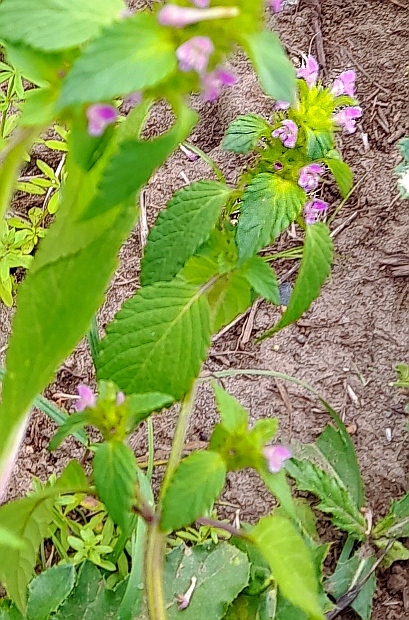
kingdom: Plantae
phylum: Tracheophyta
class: Magnoliopsida
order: Lamiales
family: Lamiaceae
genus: Galeopsis
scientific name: Galeopsis bifida
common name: Bifid hemp-nettle
